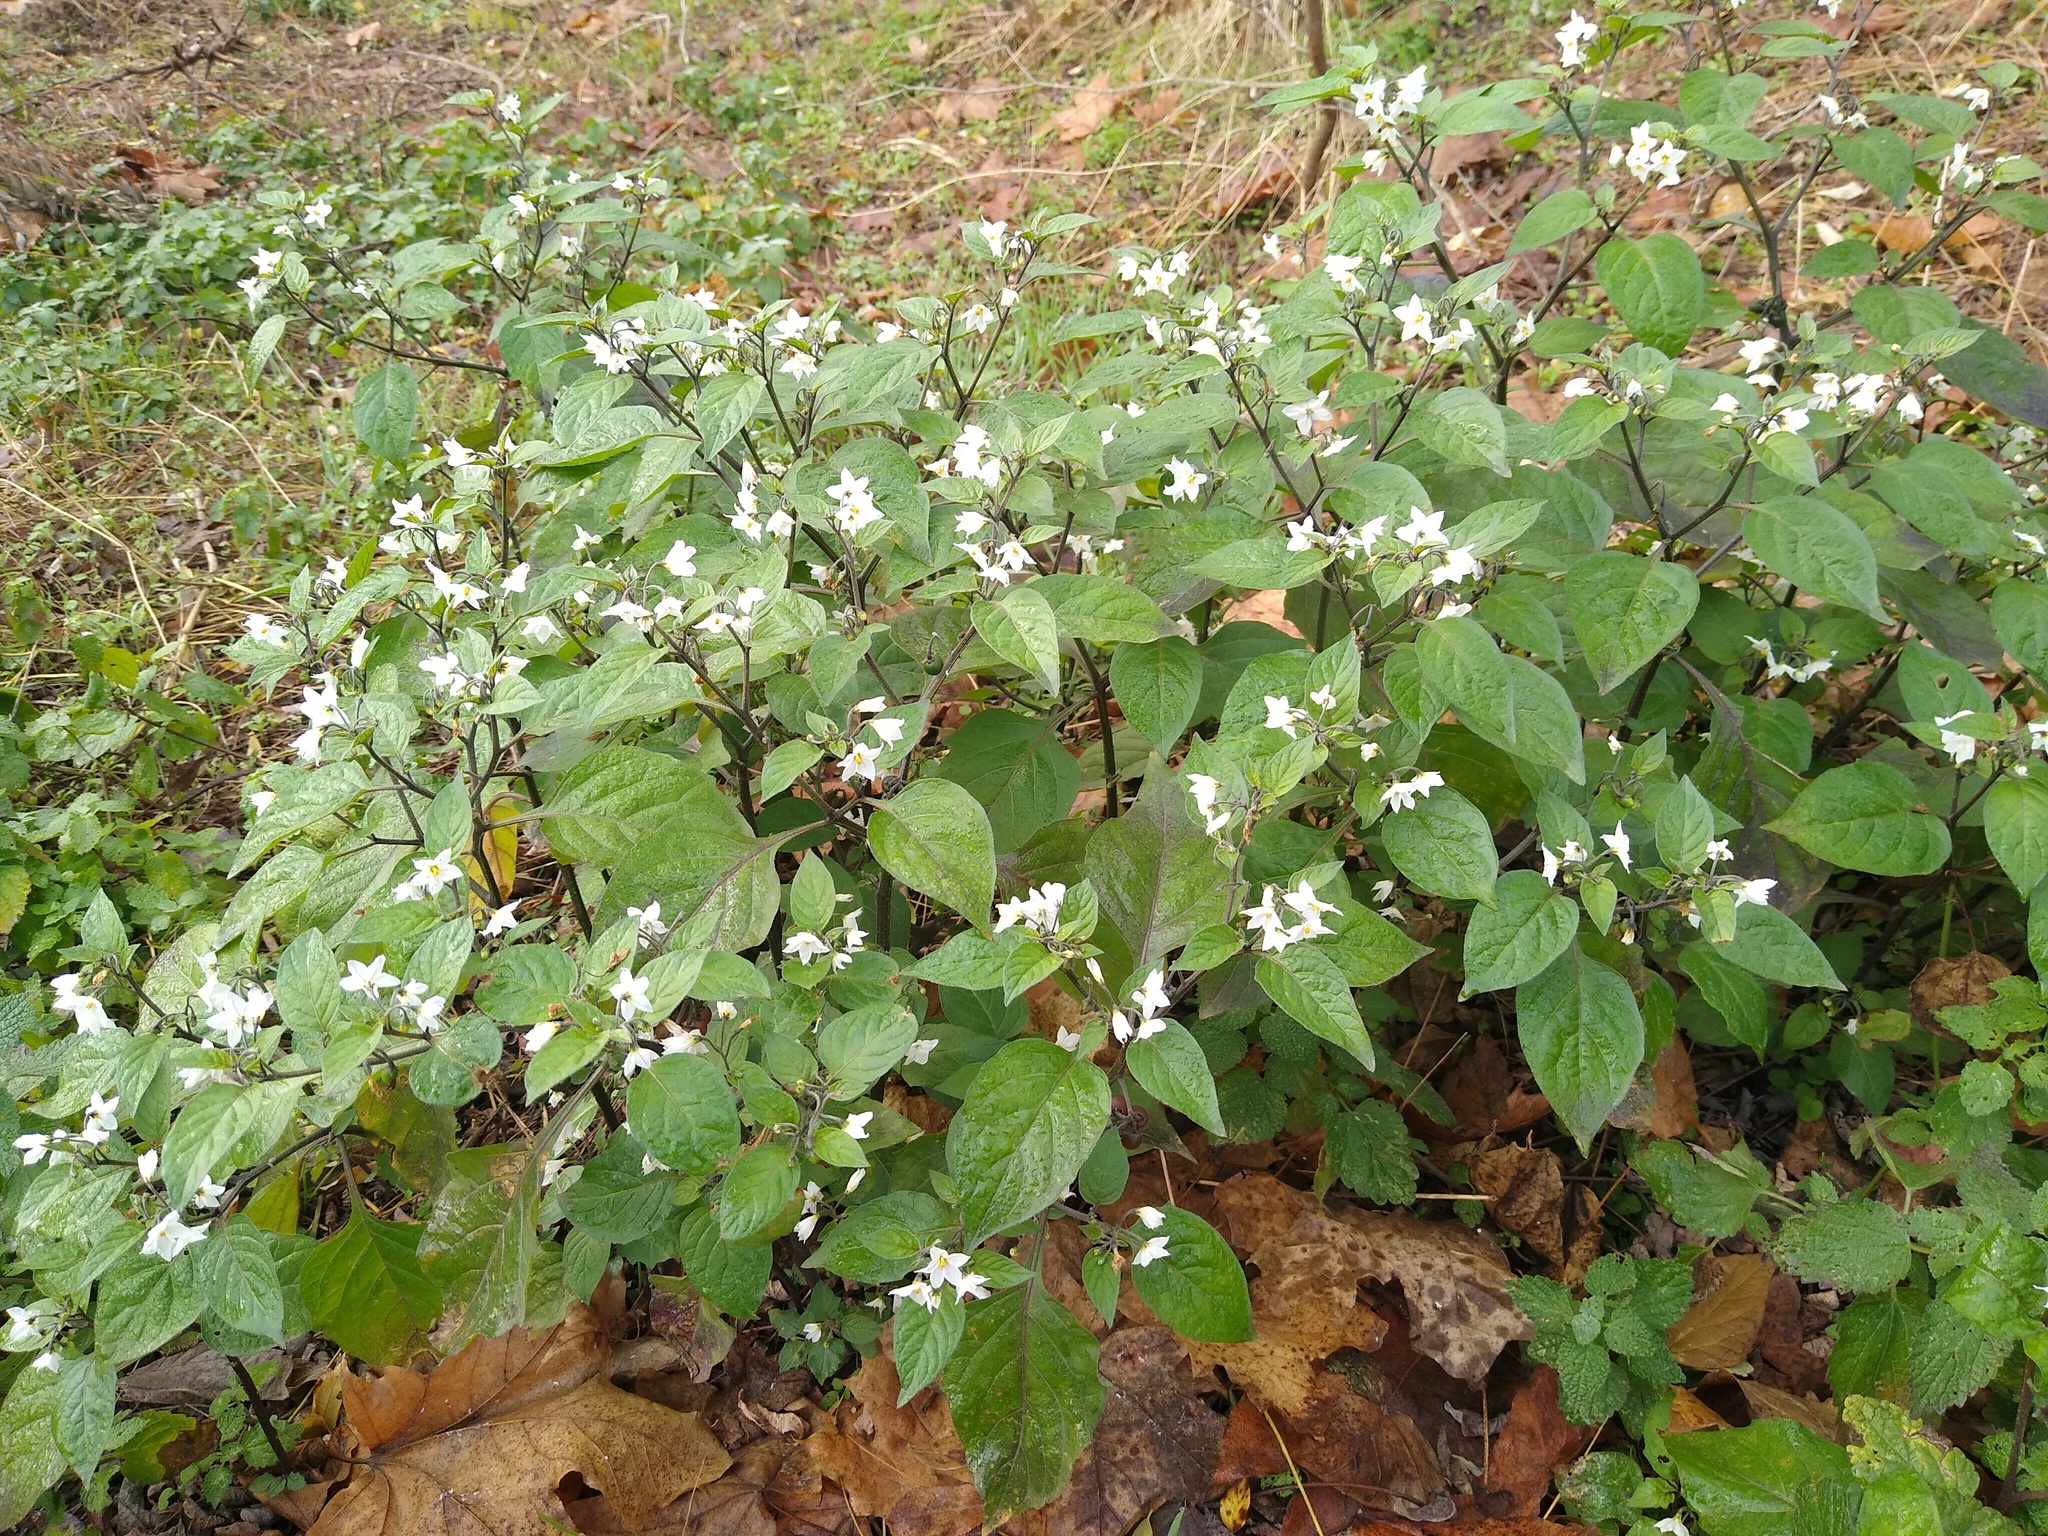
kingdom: Plantae
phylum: Tracheophyta
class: Magnoliopsida
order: Solanales
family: Solanaceae
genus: Solanum
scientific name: Solanum villosum
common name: Red nightshade
